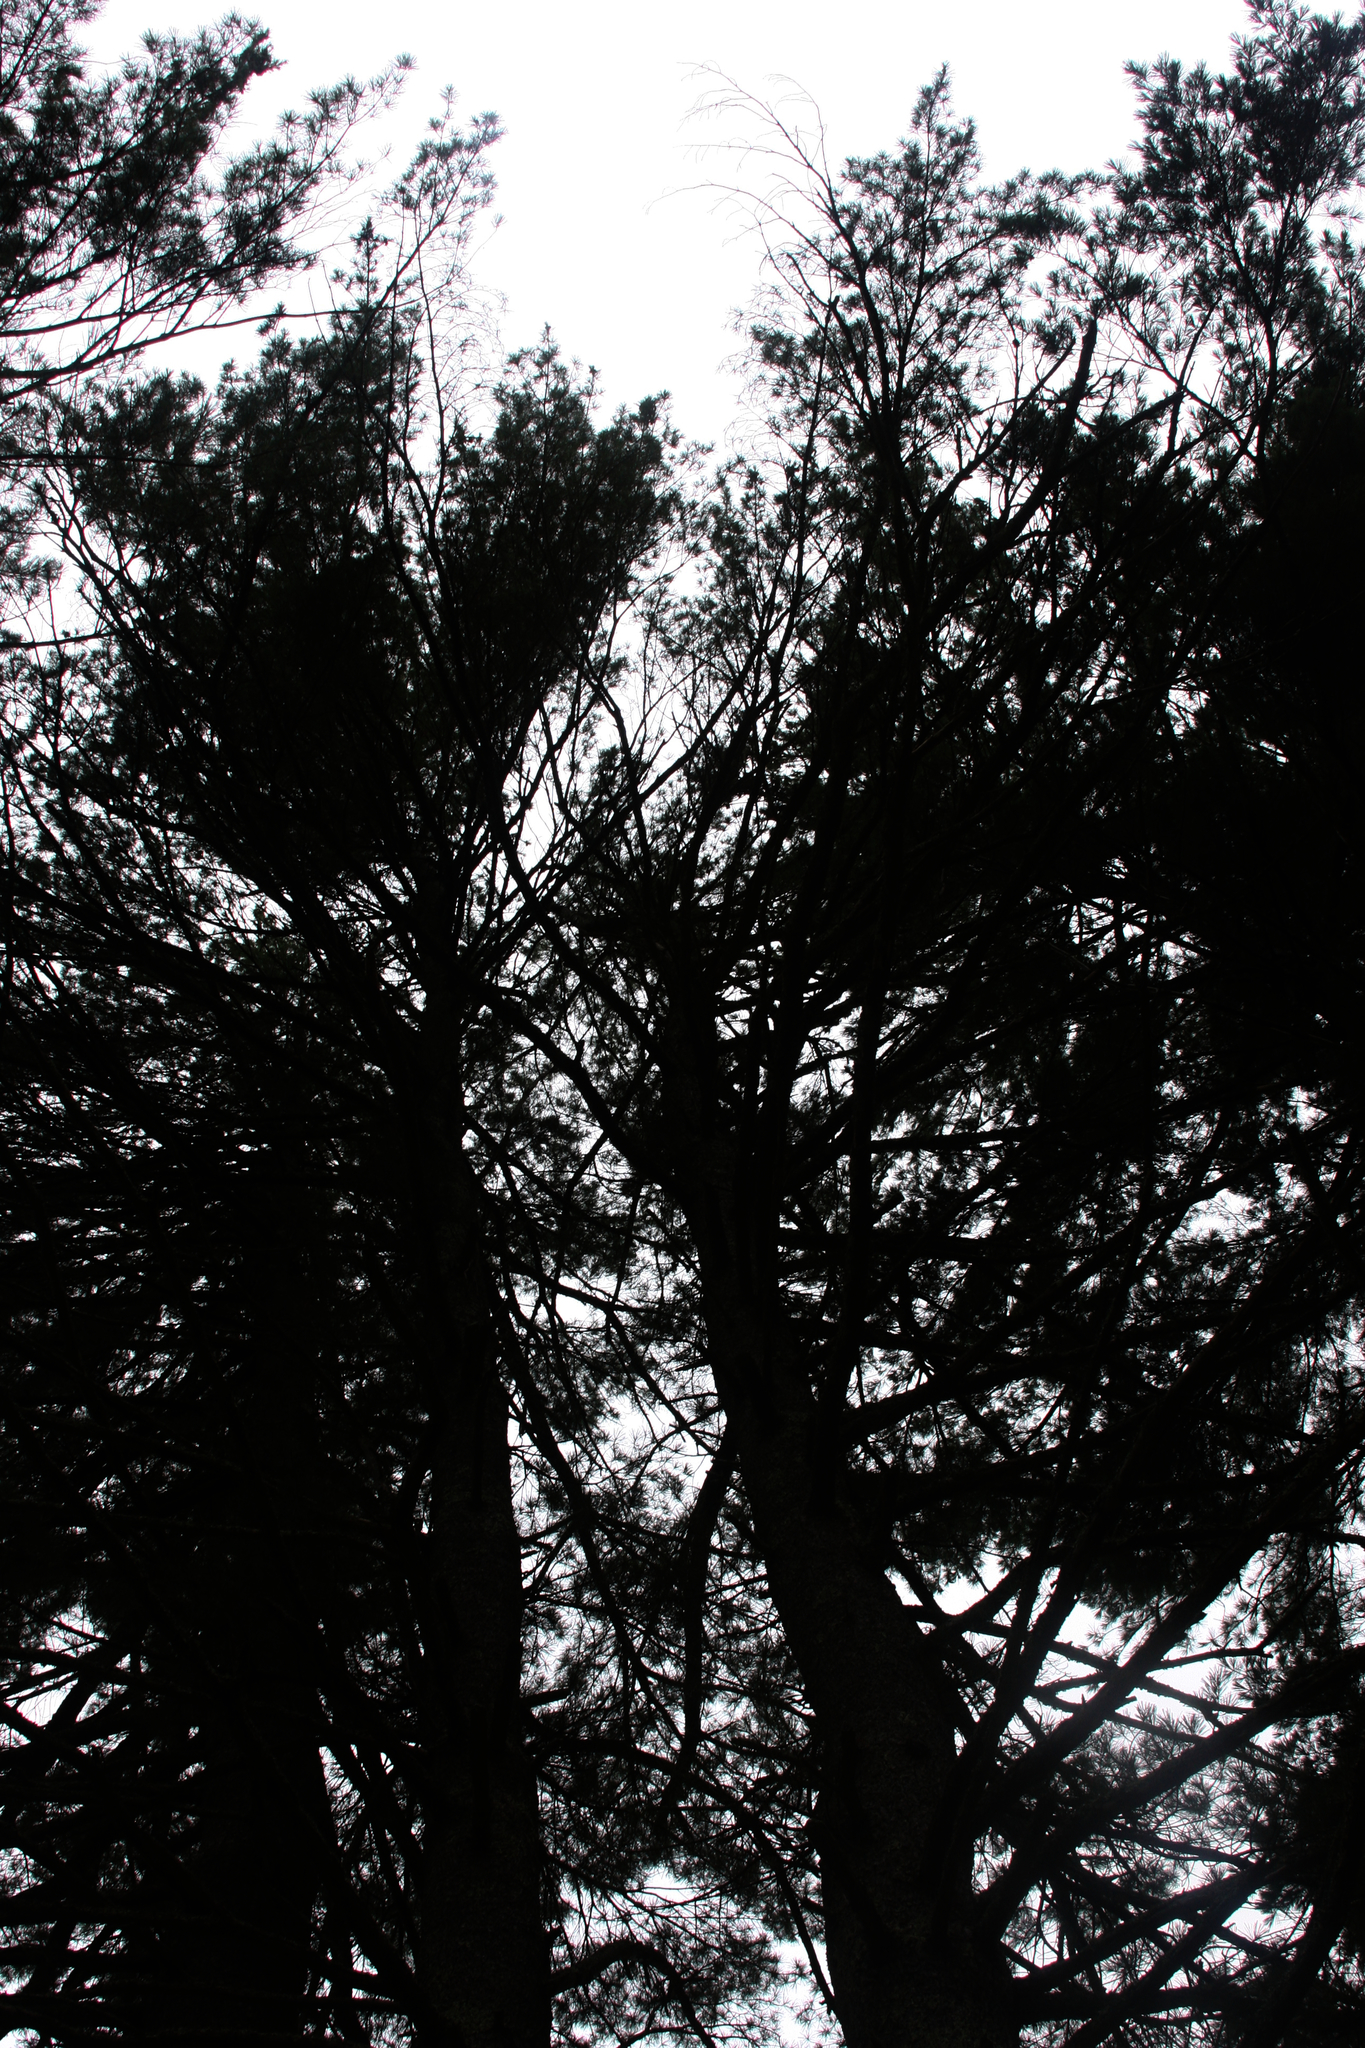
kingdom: Plantae
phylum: Tracheophyta
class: Pinopsida
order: Pinales
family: Pinaceae
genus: Pinus
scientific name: Pinus strobus
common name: Weymouth pine
